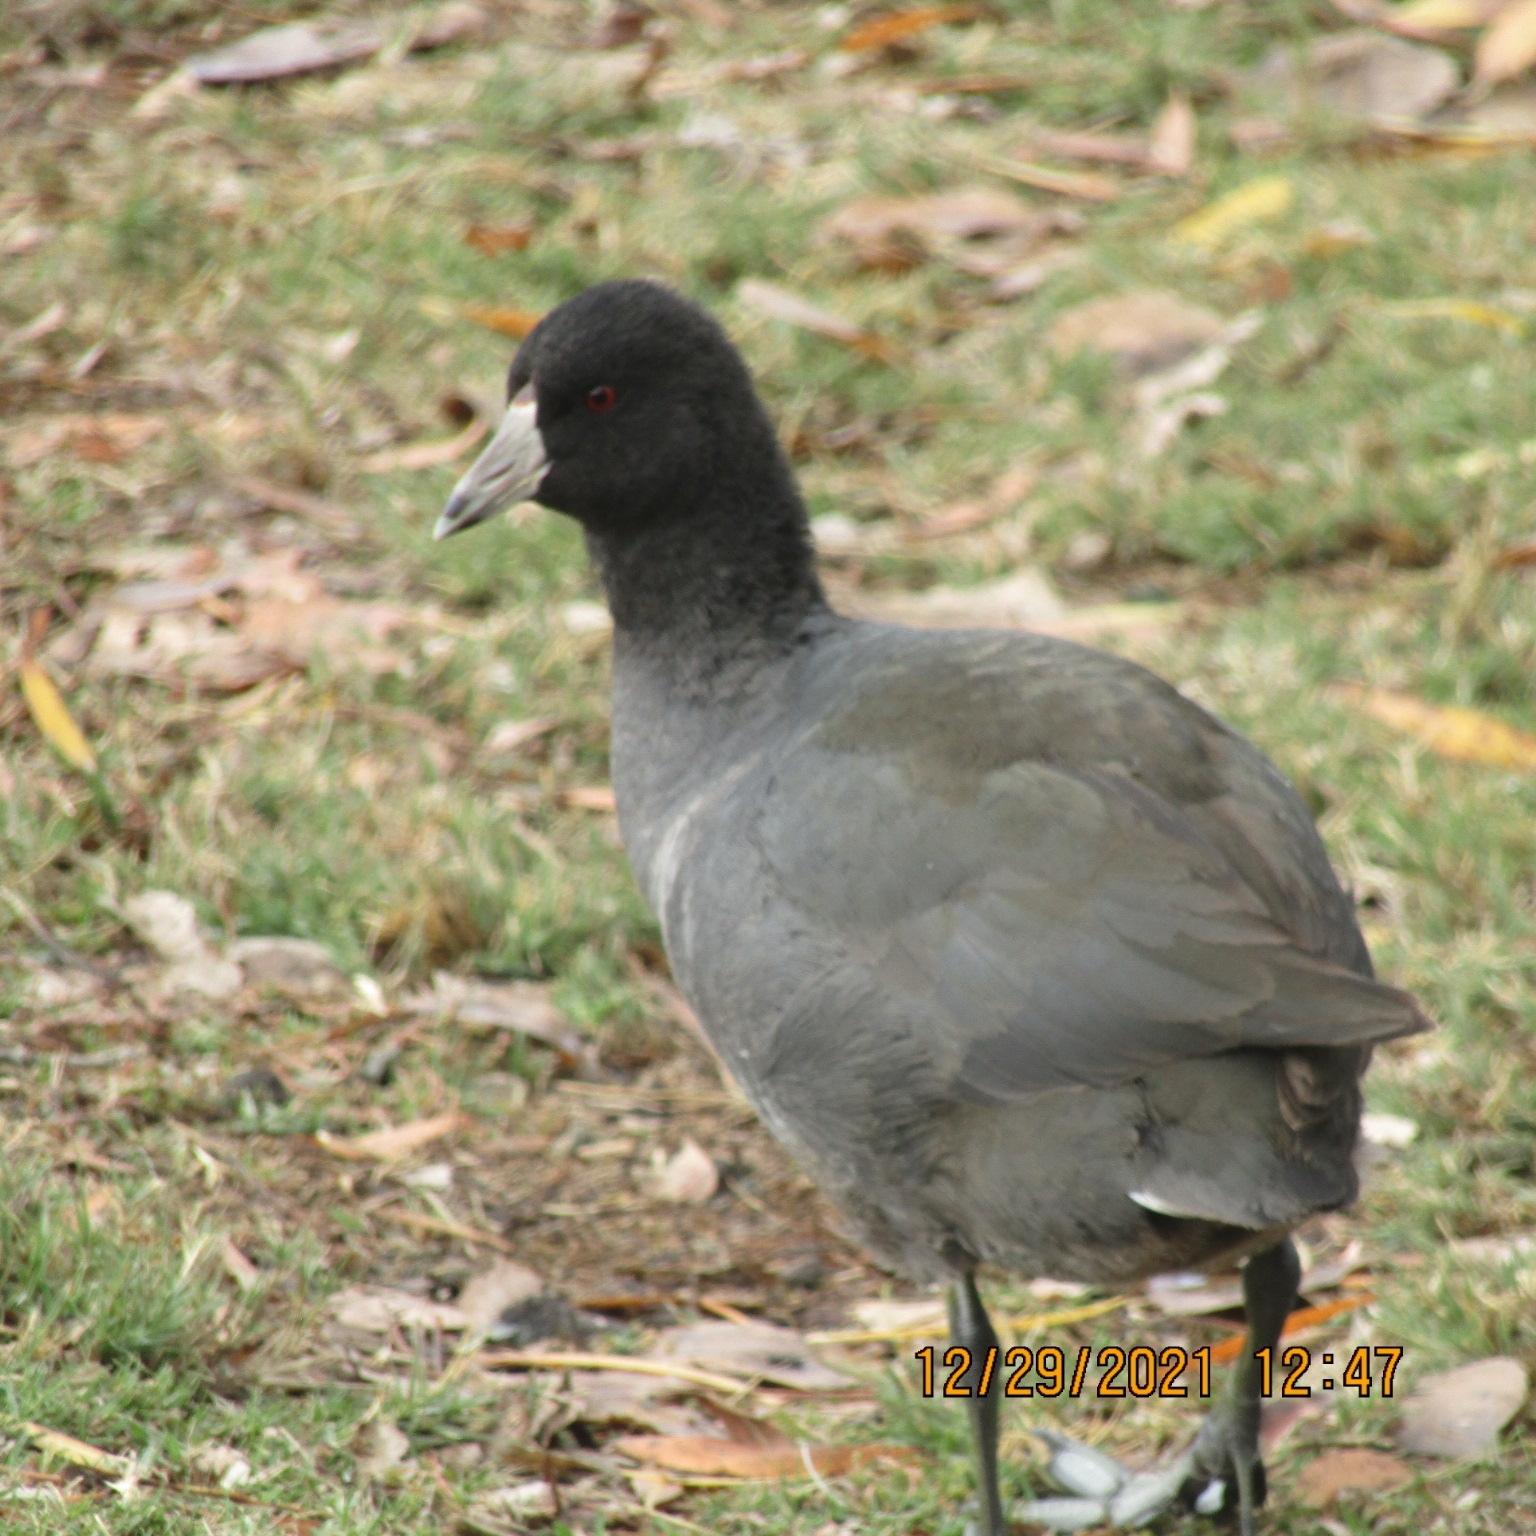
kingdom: Animalia
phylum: Chordata
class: Aves
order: Gruiformes
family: Rallidae
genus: Fulica
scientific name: Fulica americana
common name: American coot
